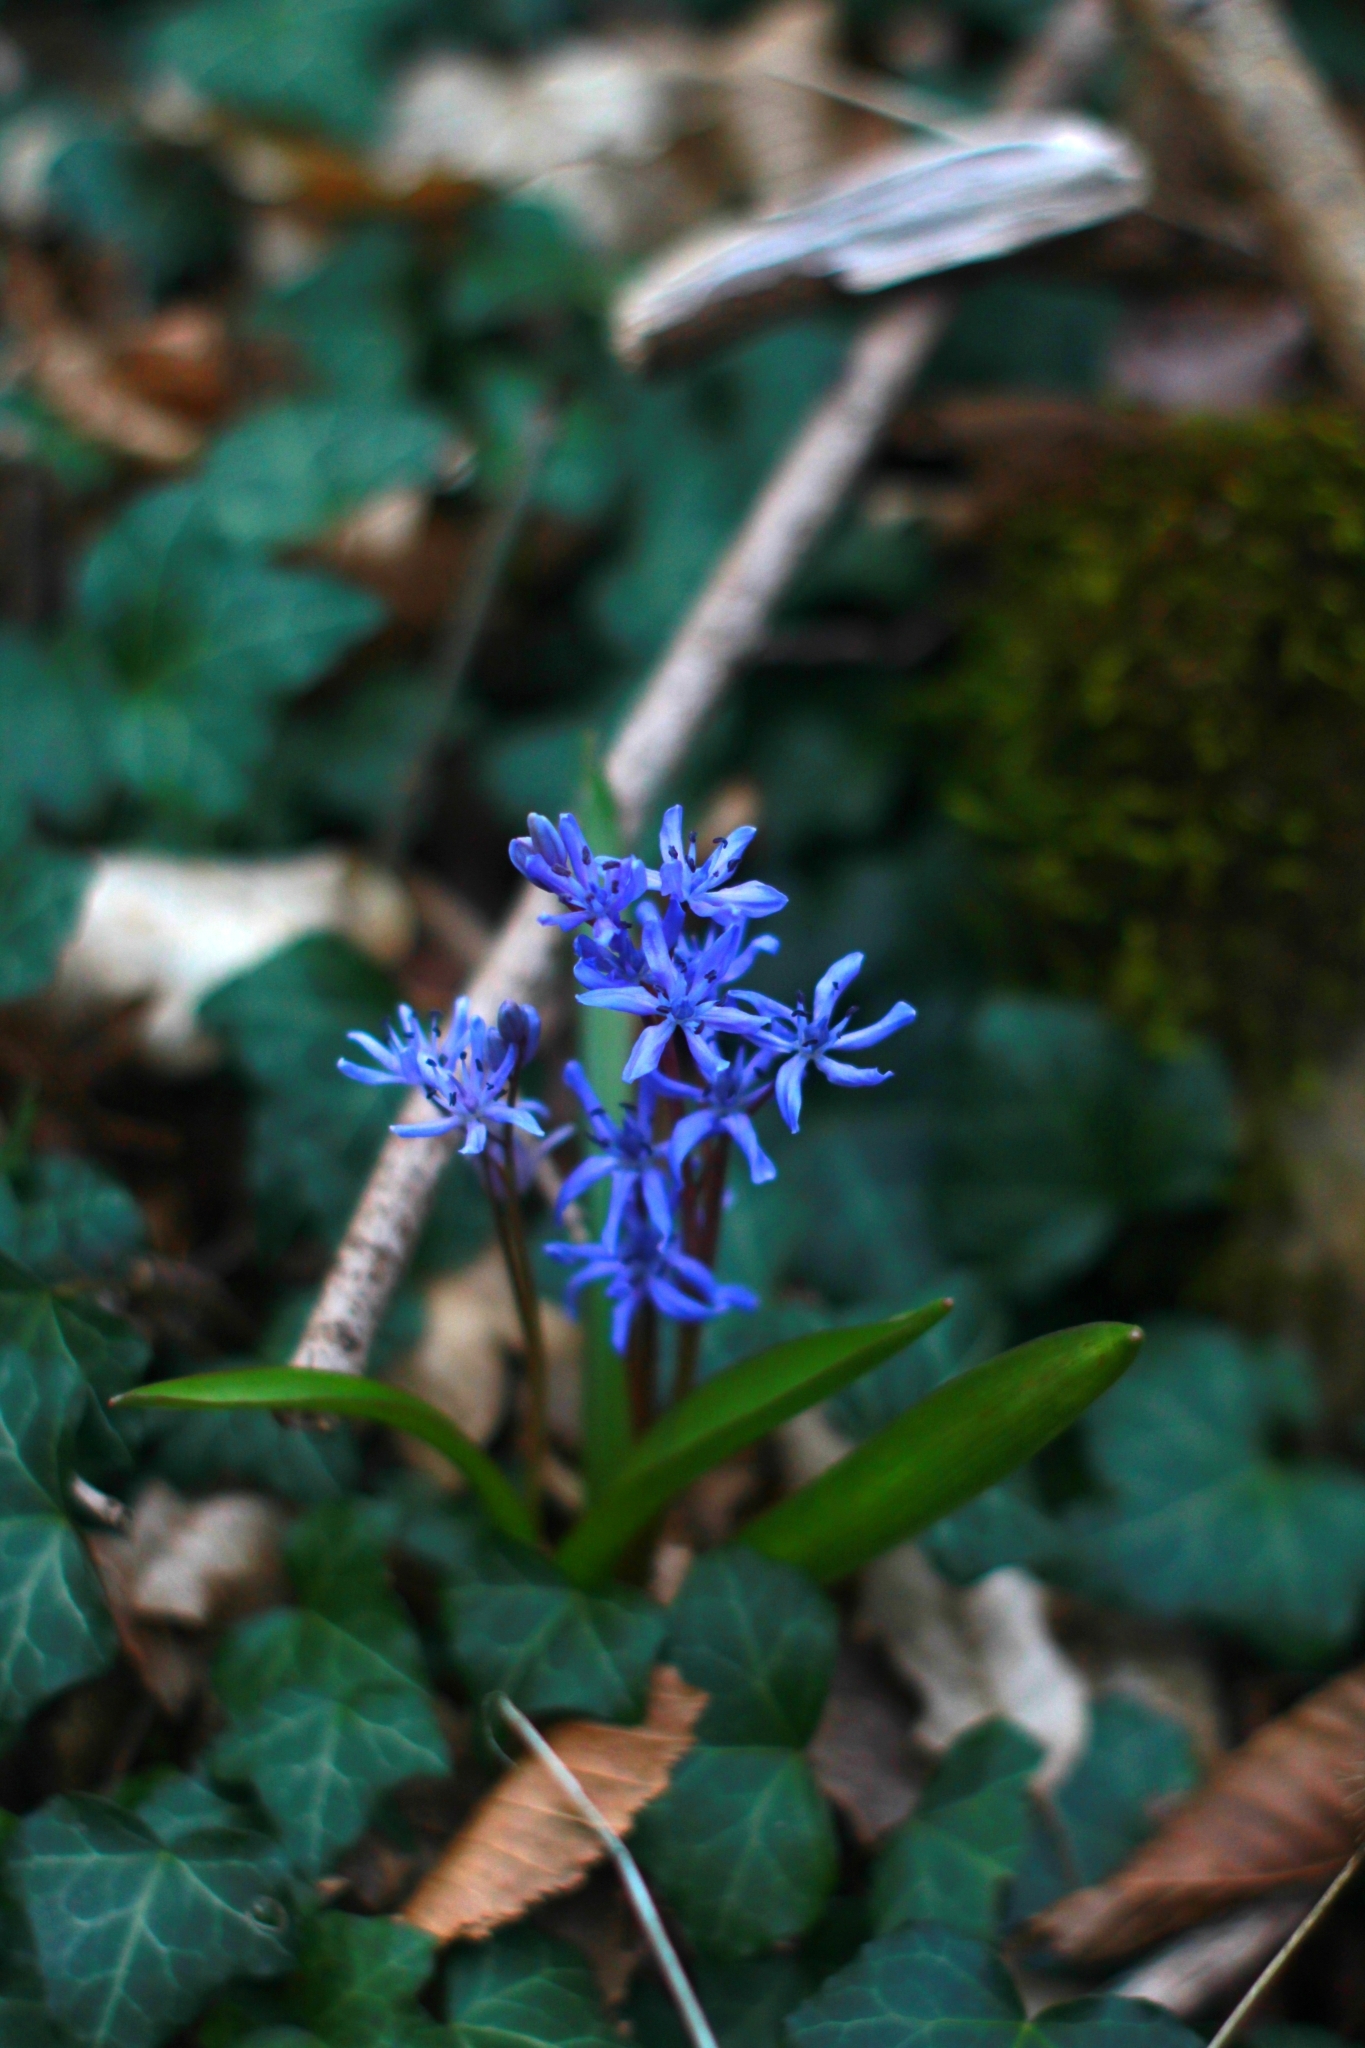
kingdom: Plantae
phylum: Tracheophyta
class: Liliopsida
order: Asparagales
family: Asparagaceae
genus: Scilla
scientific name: Scilla bifolia
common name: Alpine squill
